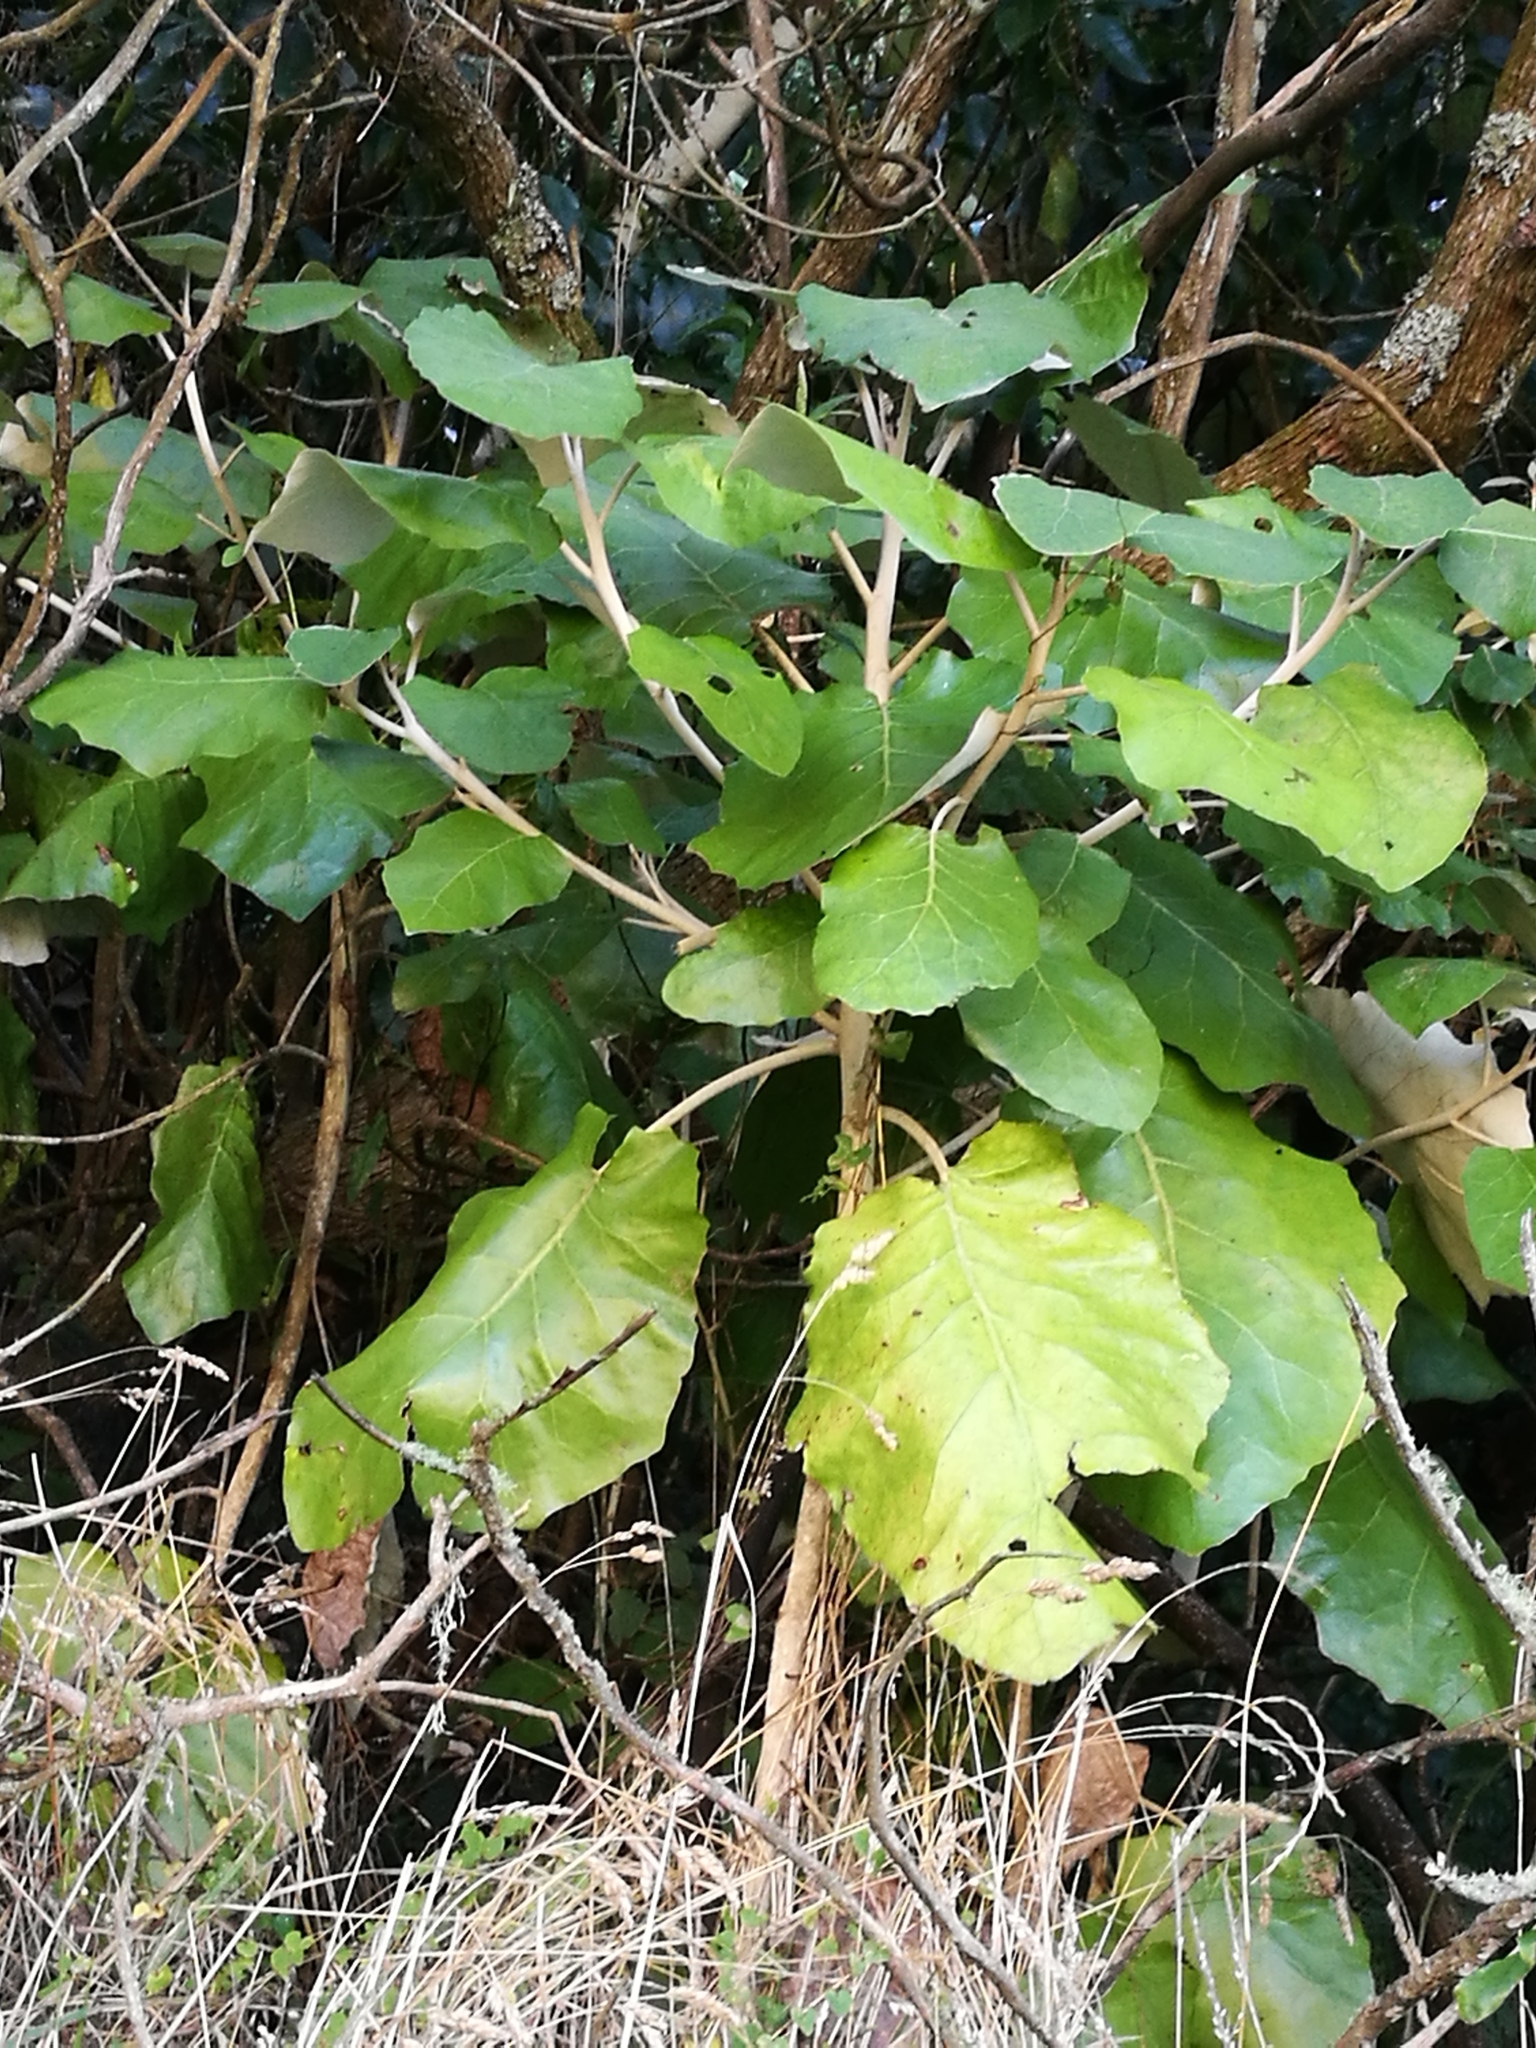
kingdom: Plantae
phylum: Tracheophyta
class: Magnoliopsida
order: Asterales
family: Asteraceae
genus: Brachyglottis
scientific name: Brachyglottis repanda
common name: Hedge ragwort
